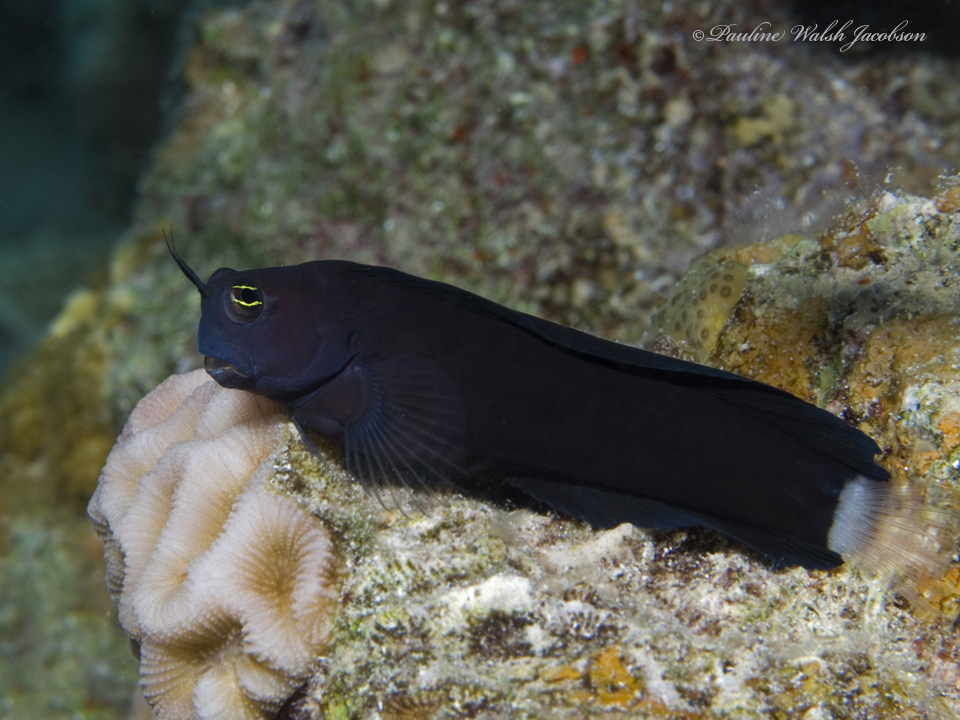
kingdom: Animalia
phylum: Chordata
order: Perciformes
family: Blenniidae
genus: Ecsenius
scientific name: Ecsenius frontalis
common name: Smooth-fin blenny
